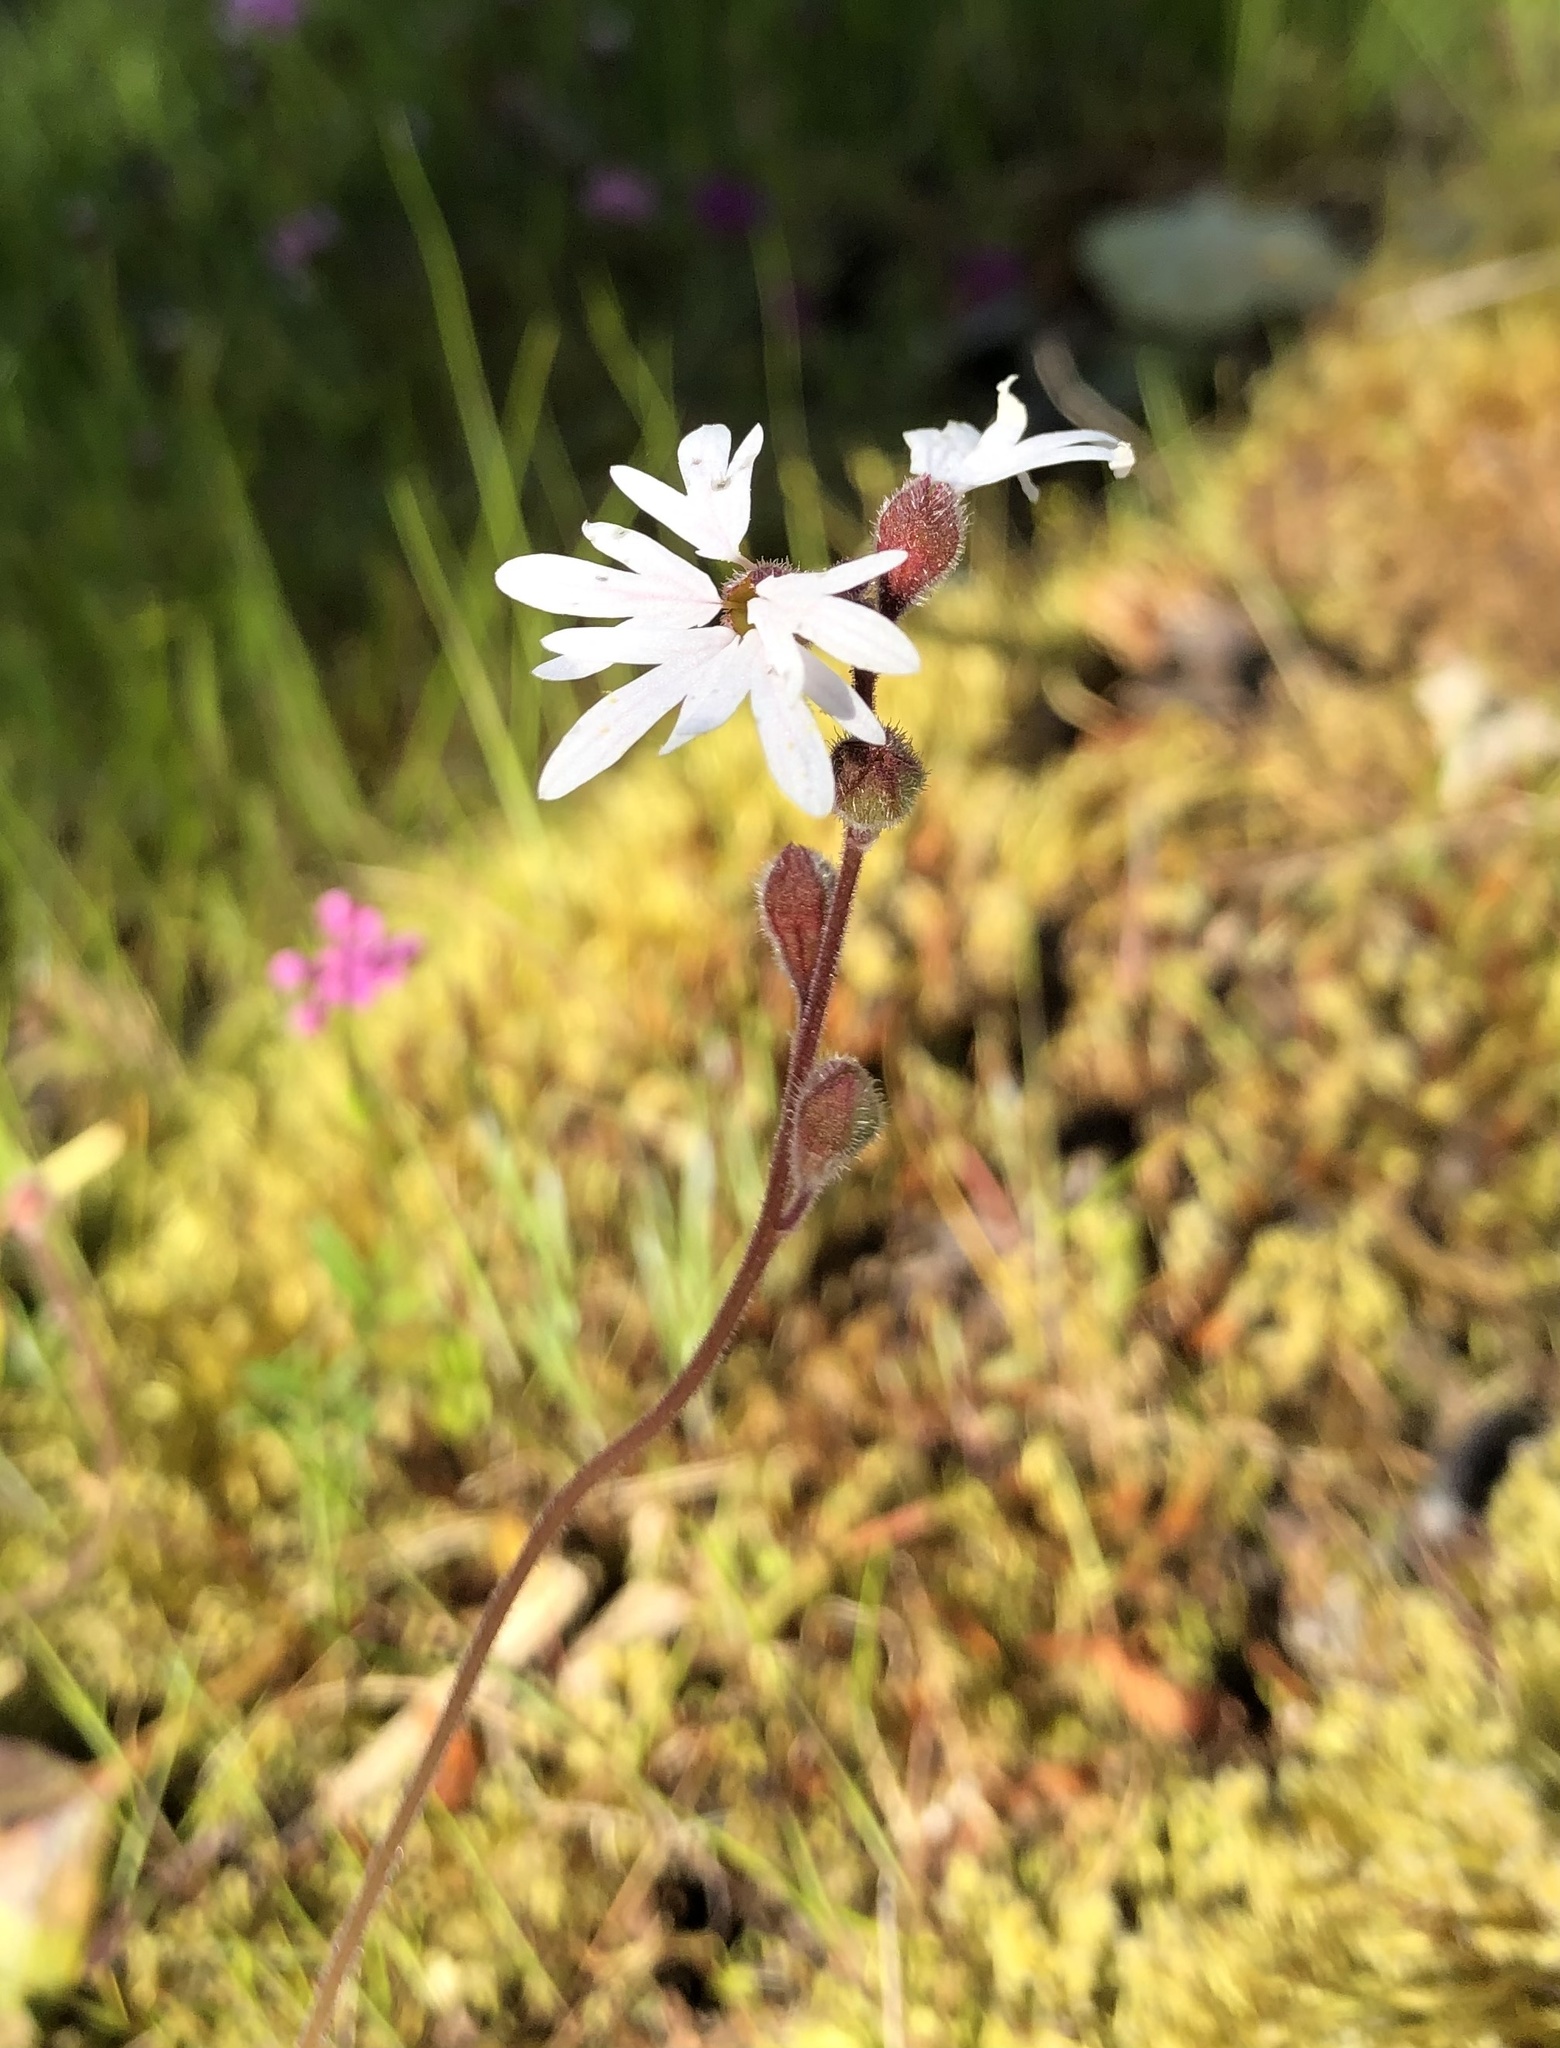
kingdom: Plantae
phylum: Tracheophyta
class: Magnoliopsida
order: Saxifragales
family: Saxifragaceae
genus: Lithophragma
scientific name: Lithophragma parviflorum
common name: Small-flowered fringe-cup
